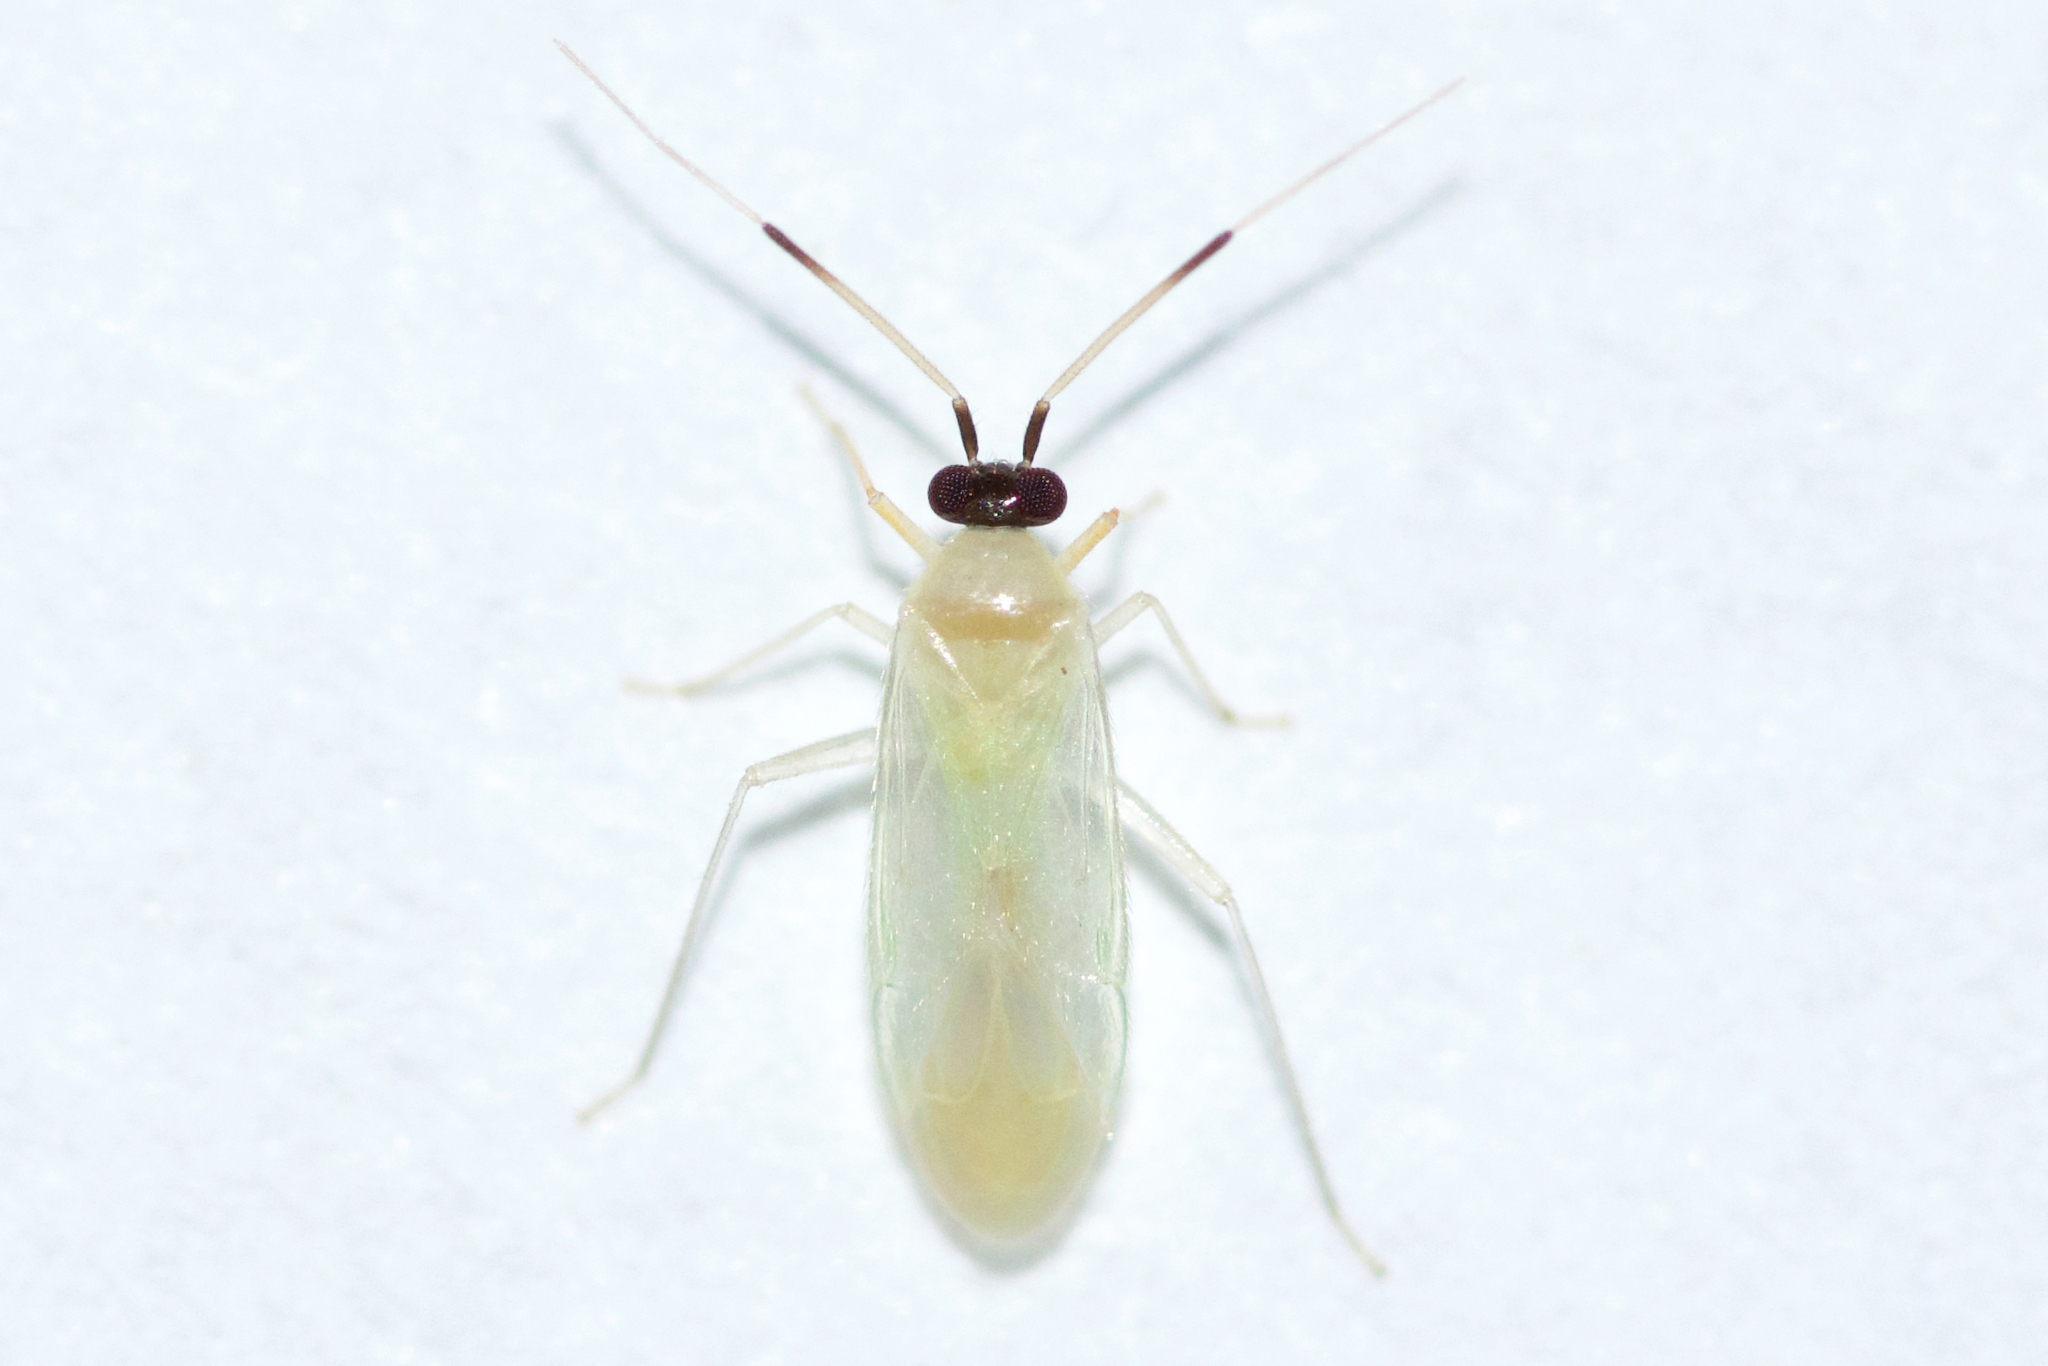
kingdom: Animalia
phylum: Arthropoda
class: Insecta
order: Hemiptera
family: Miridae
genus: Paraproba
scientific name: Paraproba capitata
